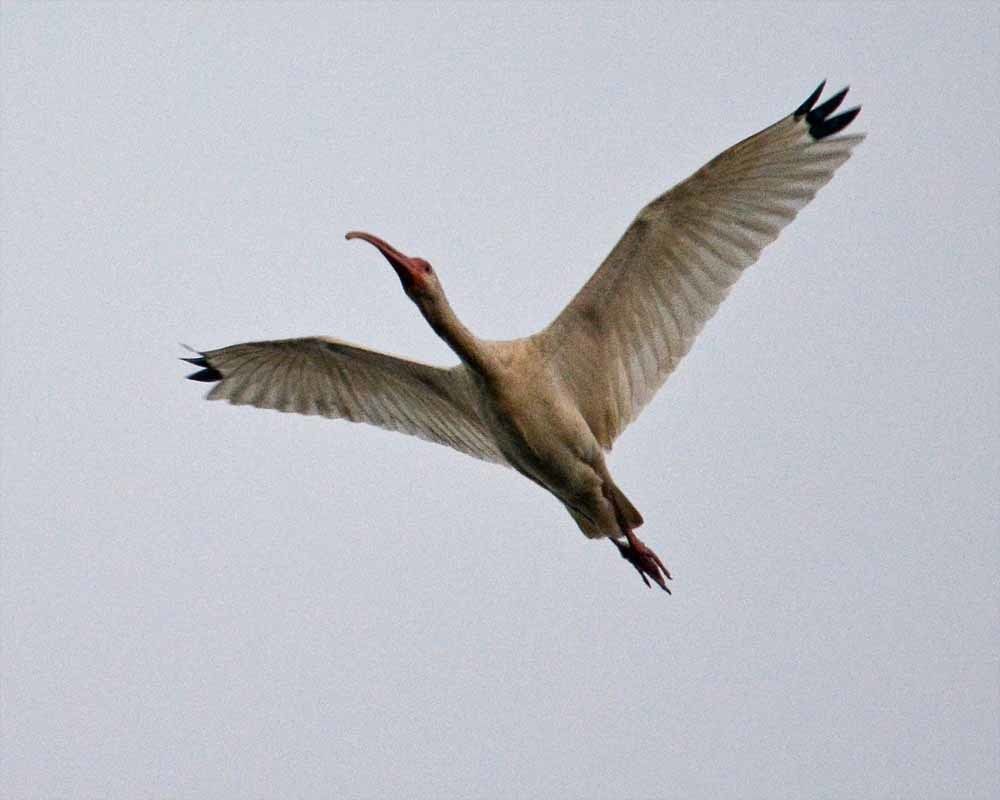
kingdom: Animalia
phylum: Chordata
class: Aves
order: Pelecaniformes
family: Threskiornithidae
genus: Eudocimus
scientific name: Eudocimus albus
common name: White ibis
